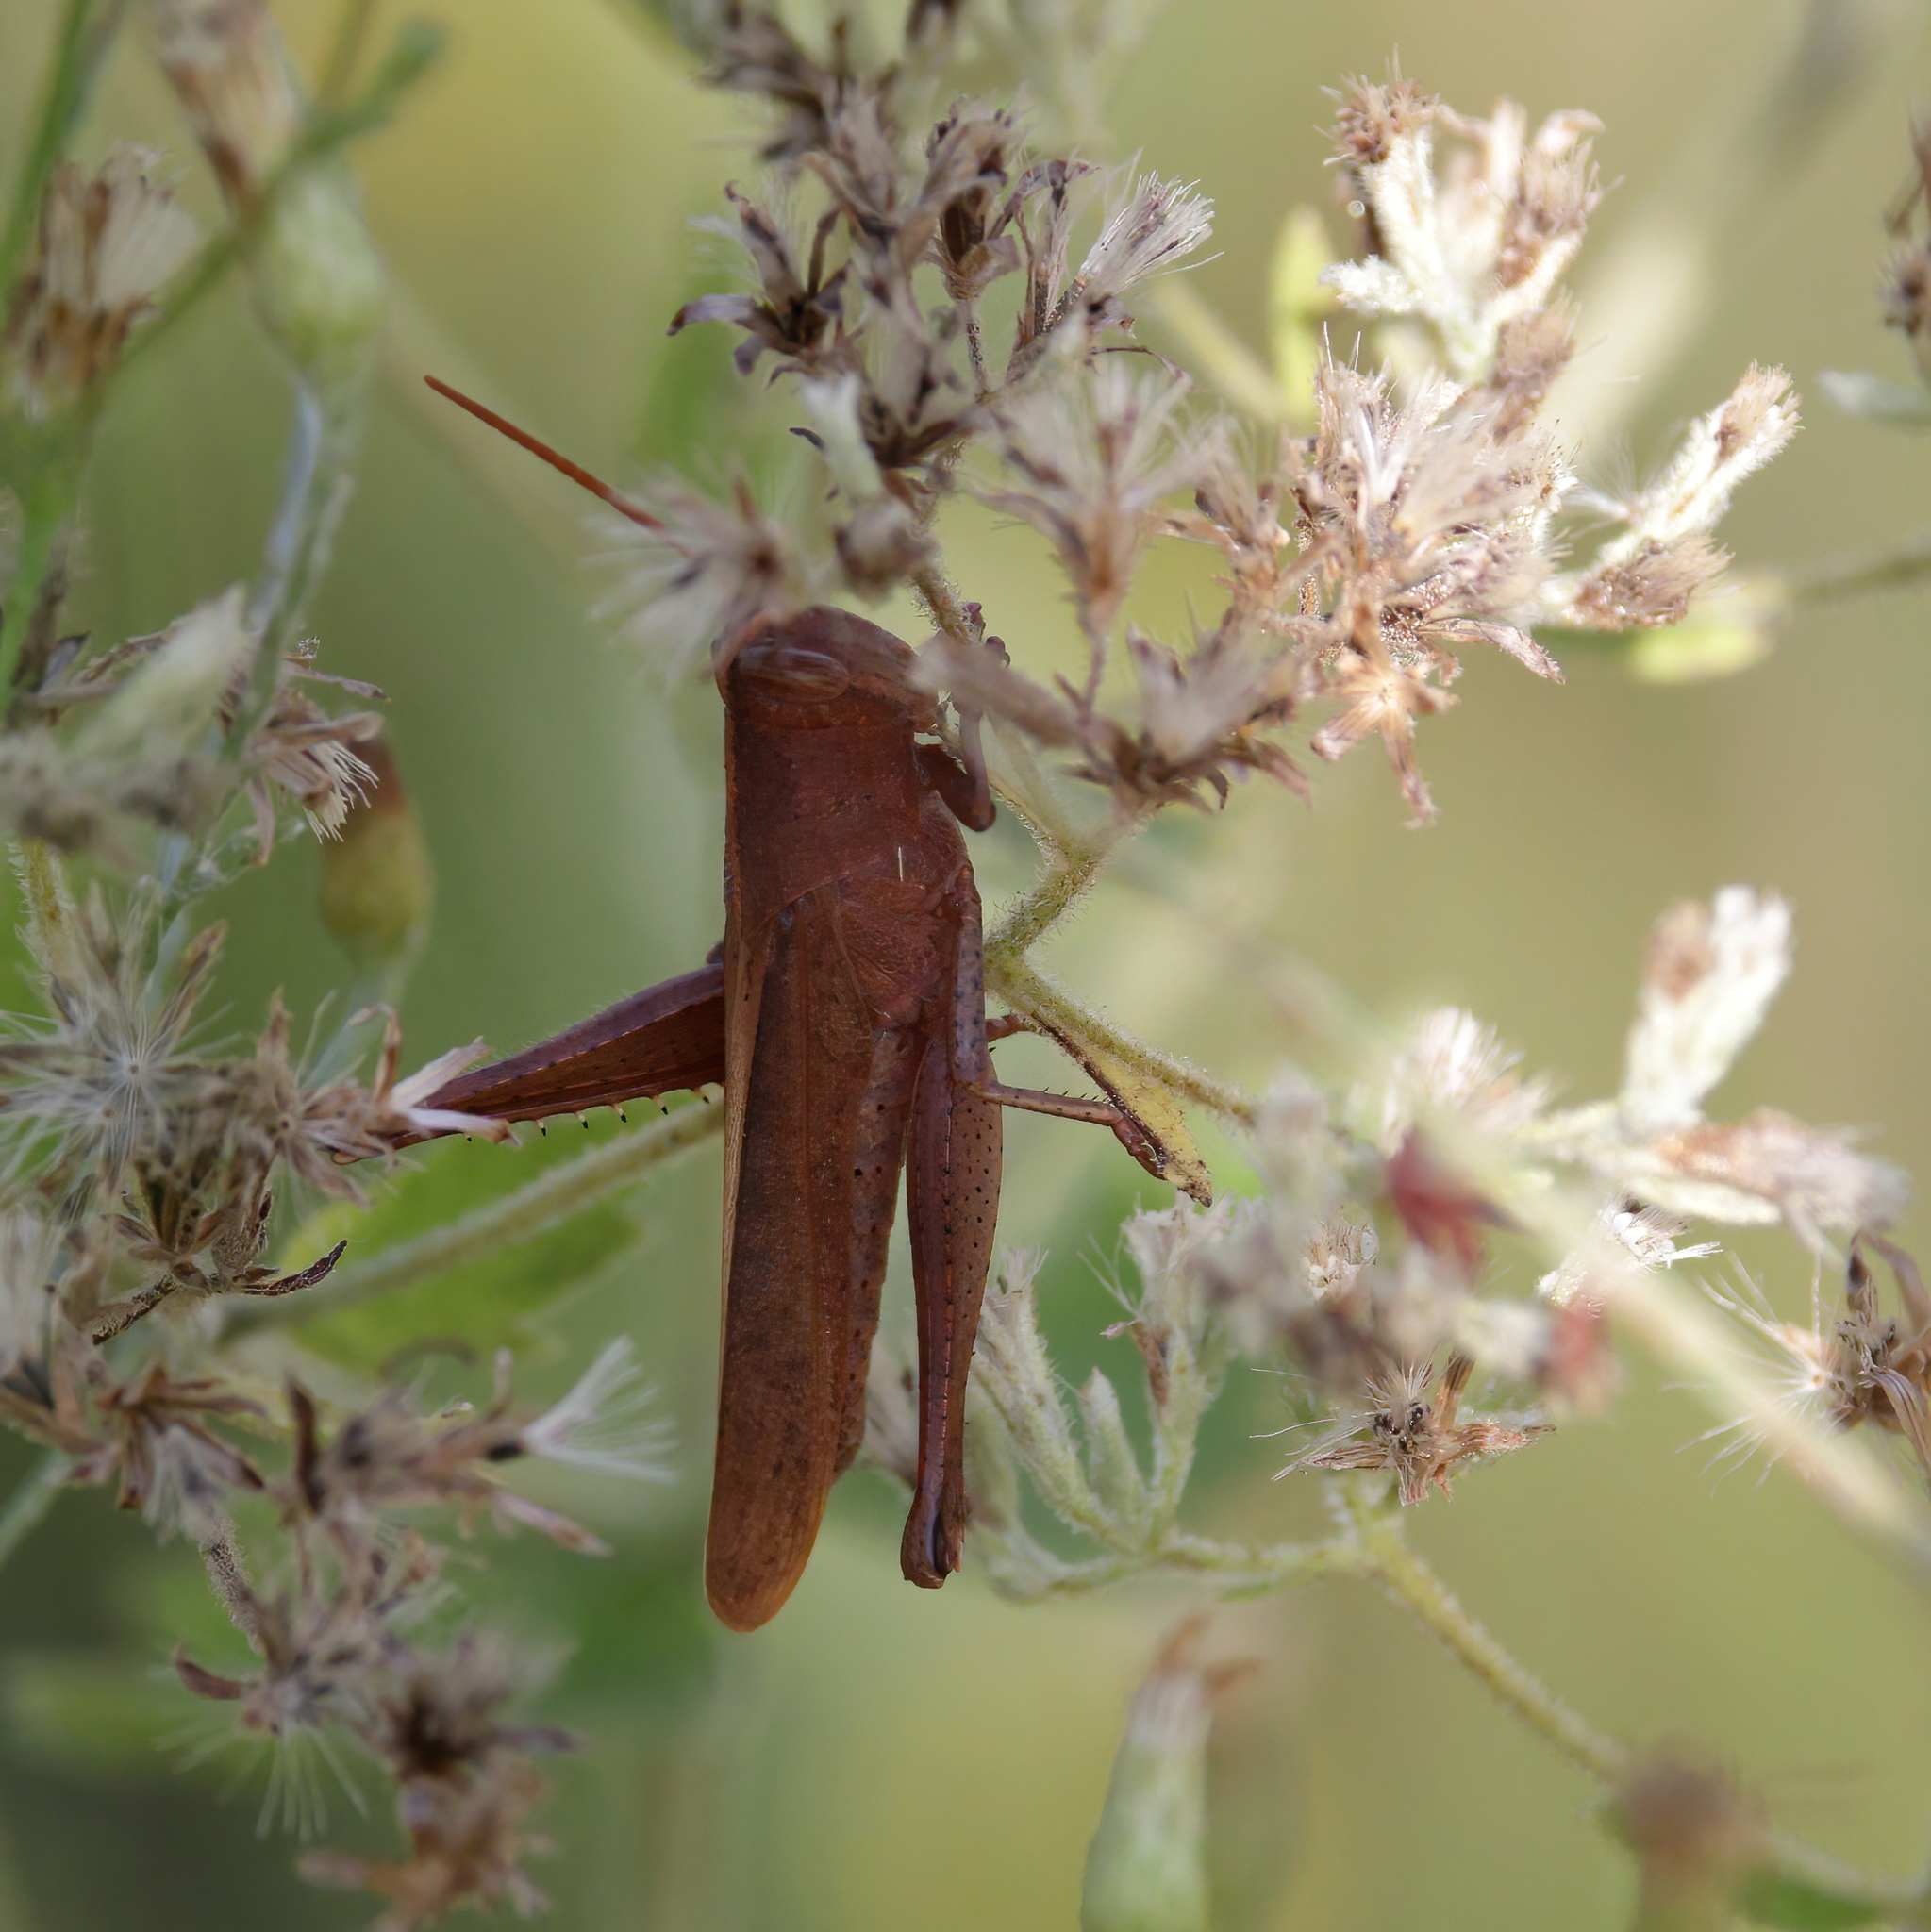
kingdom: Animalia
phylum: Arthropoda
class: Insecta
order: Orthoptera
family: Acrididae
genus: Schistocerca
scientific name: Schistocerca damnifica
